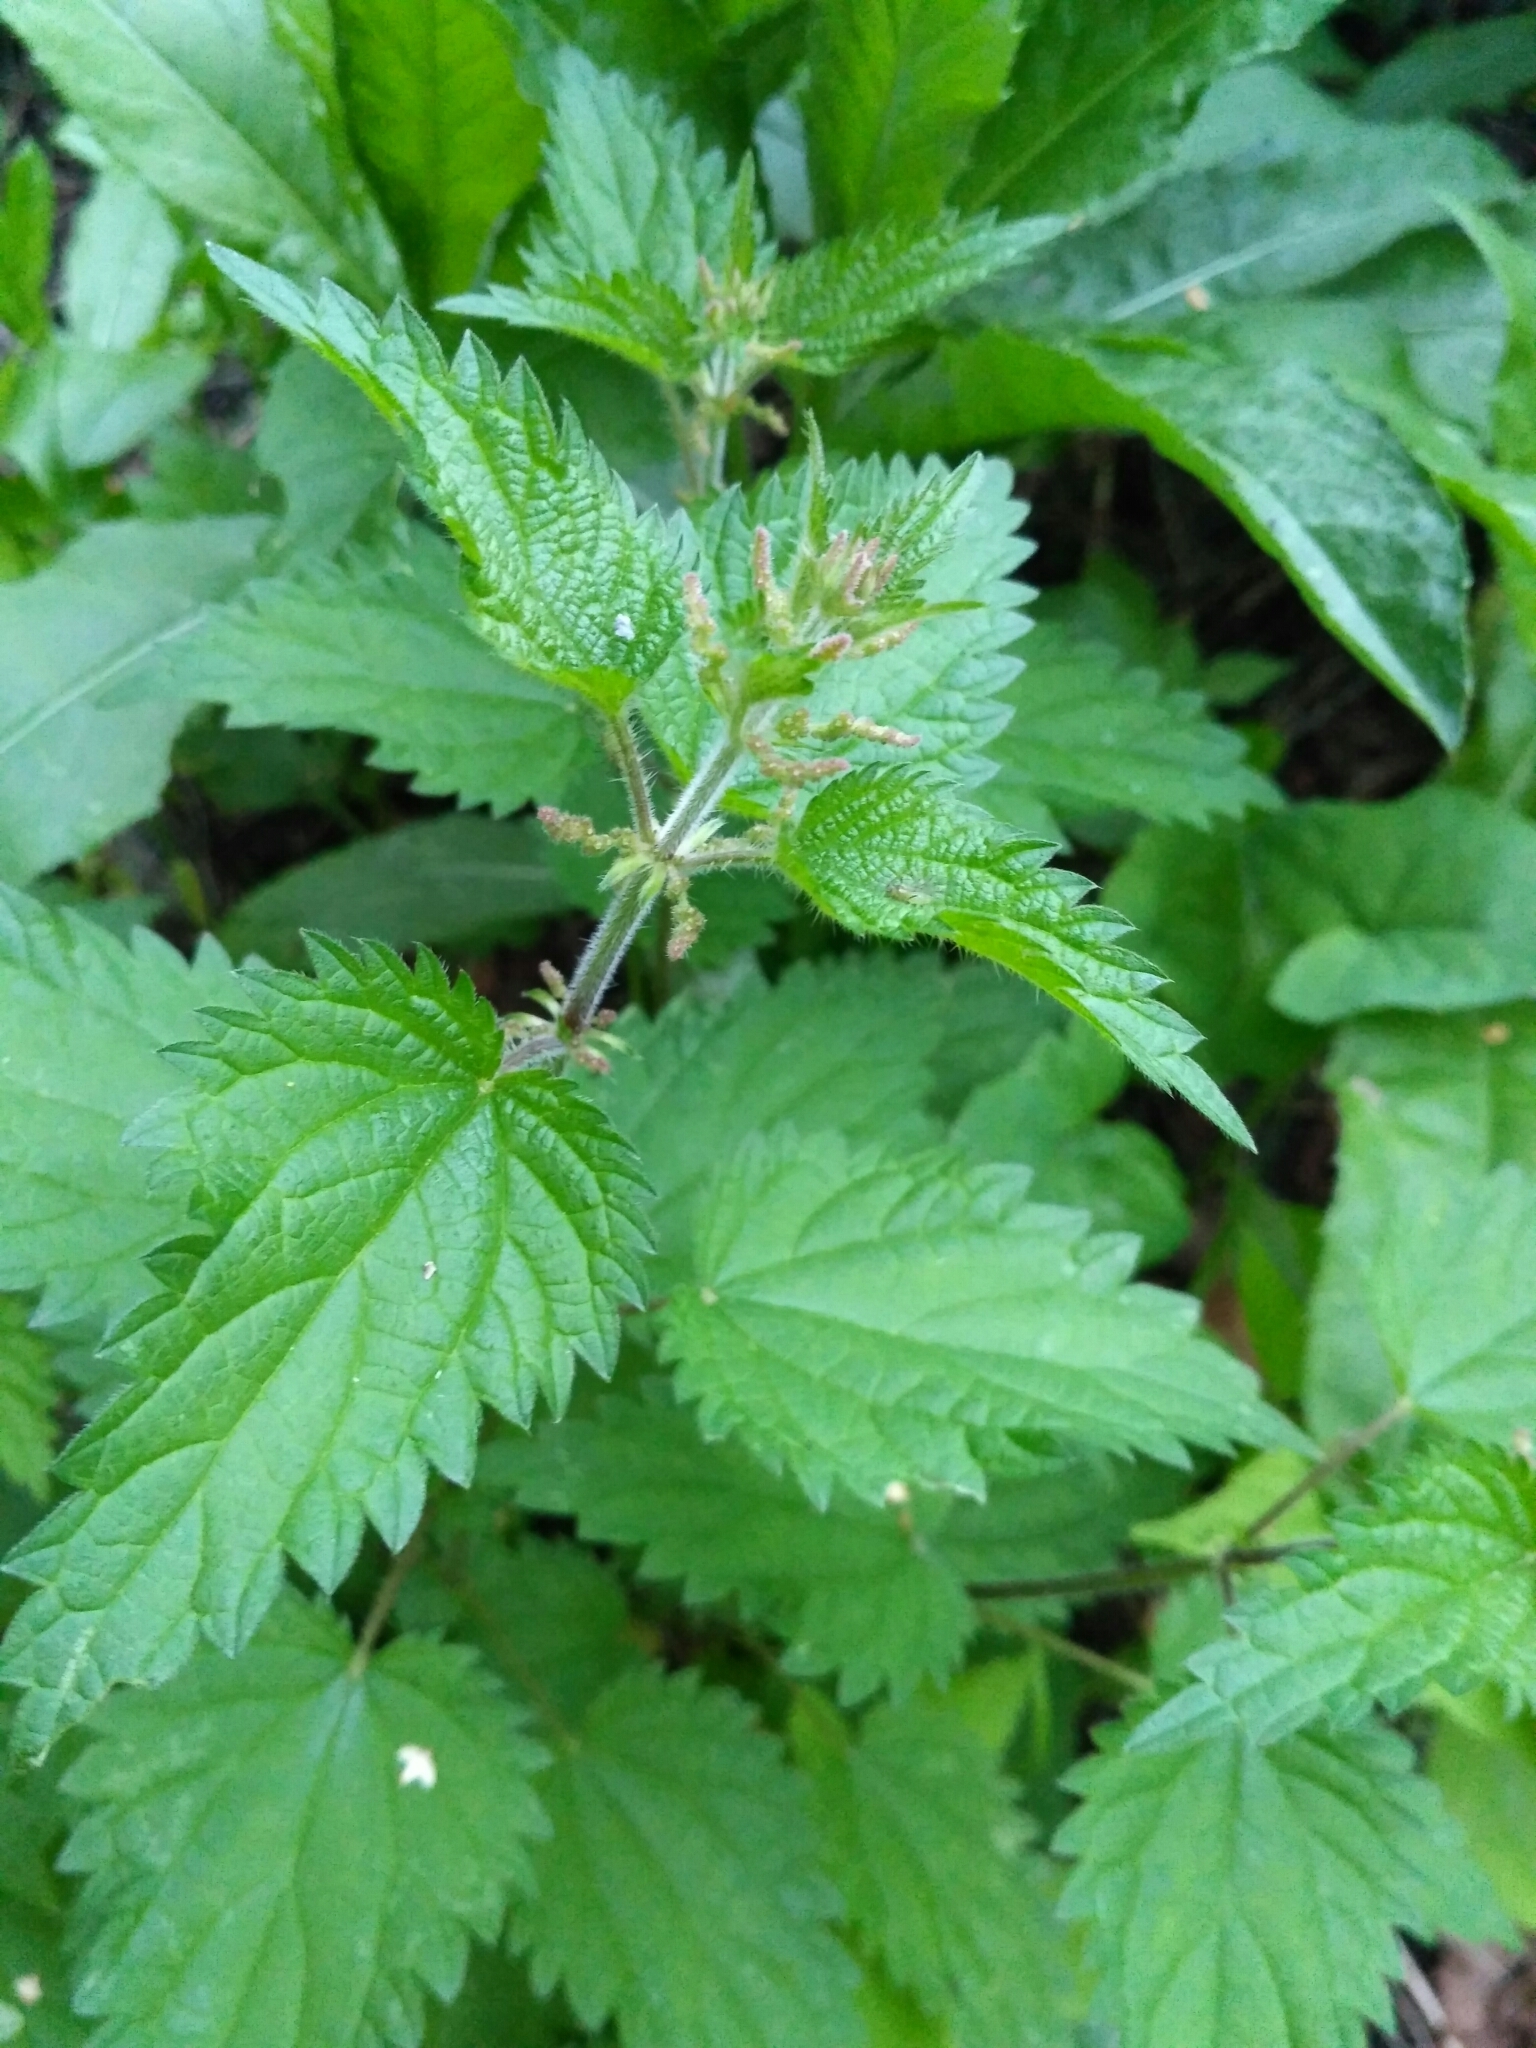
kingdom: Plantae
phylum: Tracheophyta
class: Magnoliopsida
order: Rosales
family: Urticaceae
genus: Urtica
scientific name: Urtica dioica
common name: Common nettle
